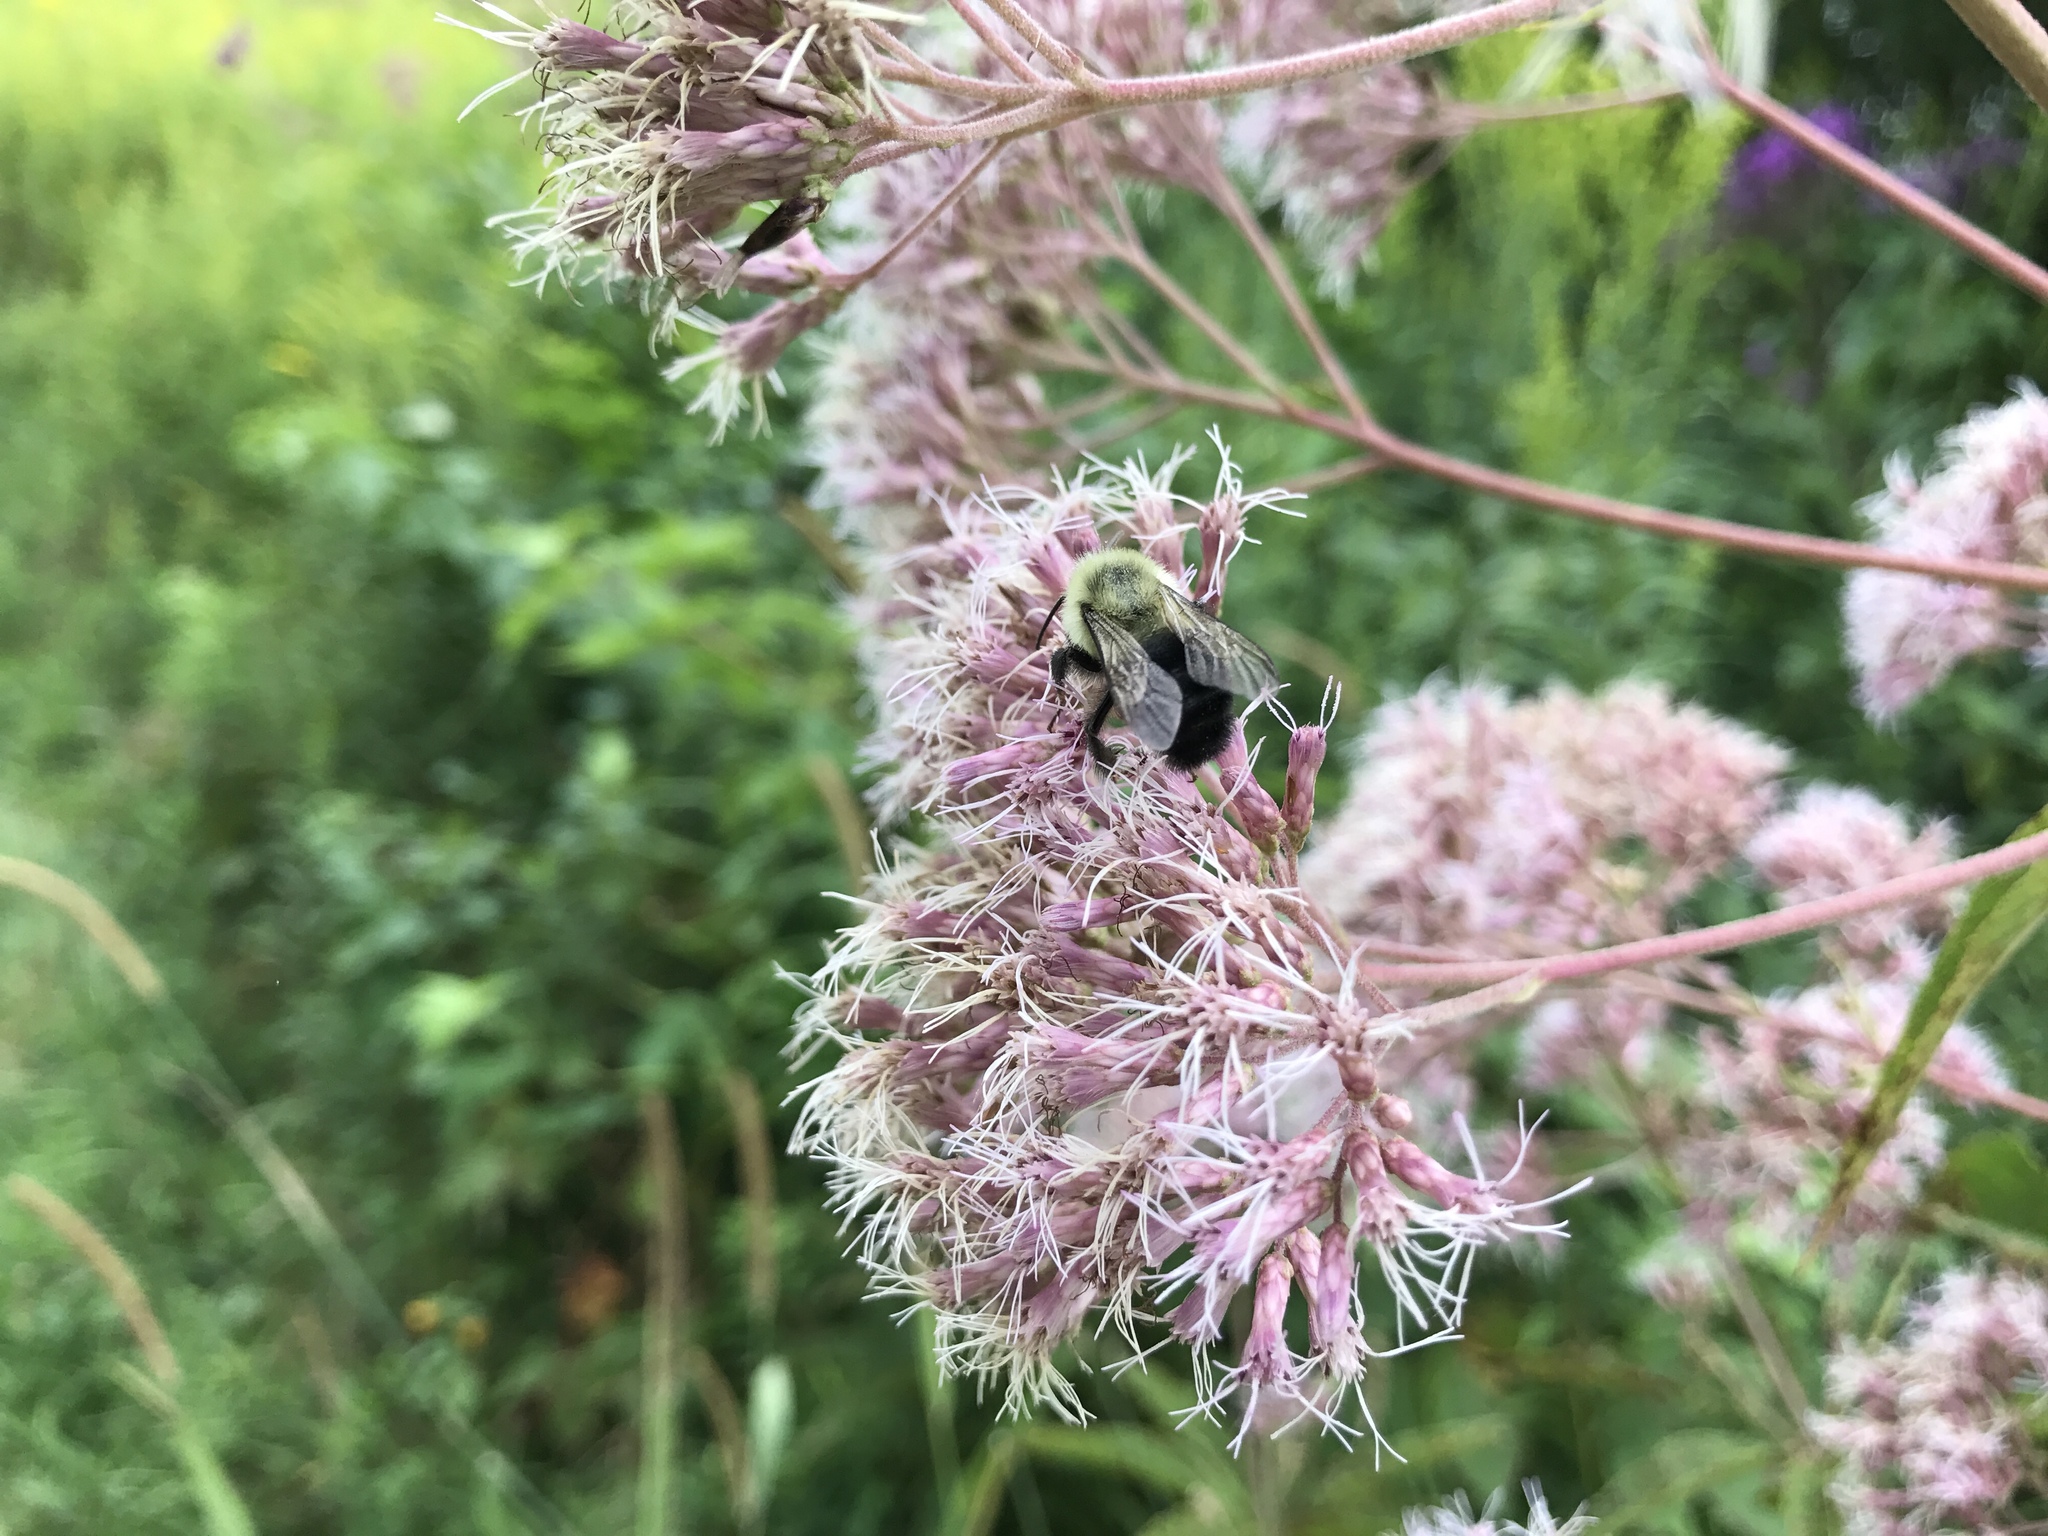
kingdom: Animalia
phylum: Arthropoda
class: Insecta
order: Hymenoptera
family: Apidae
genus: Bombus
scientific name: Bombus impatiens
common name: Common eastern bumble bee
